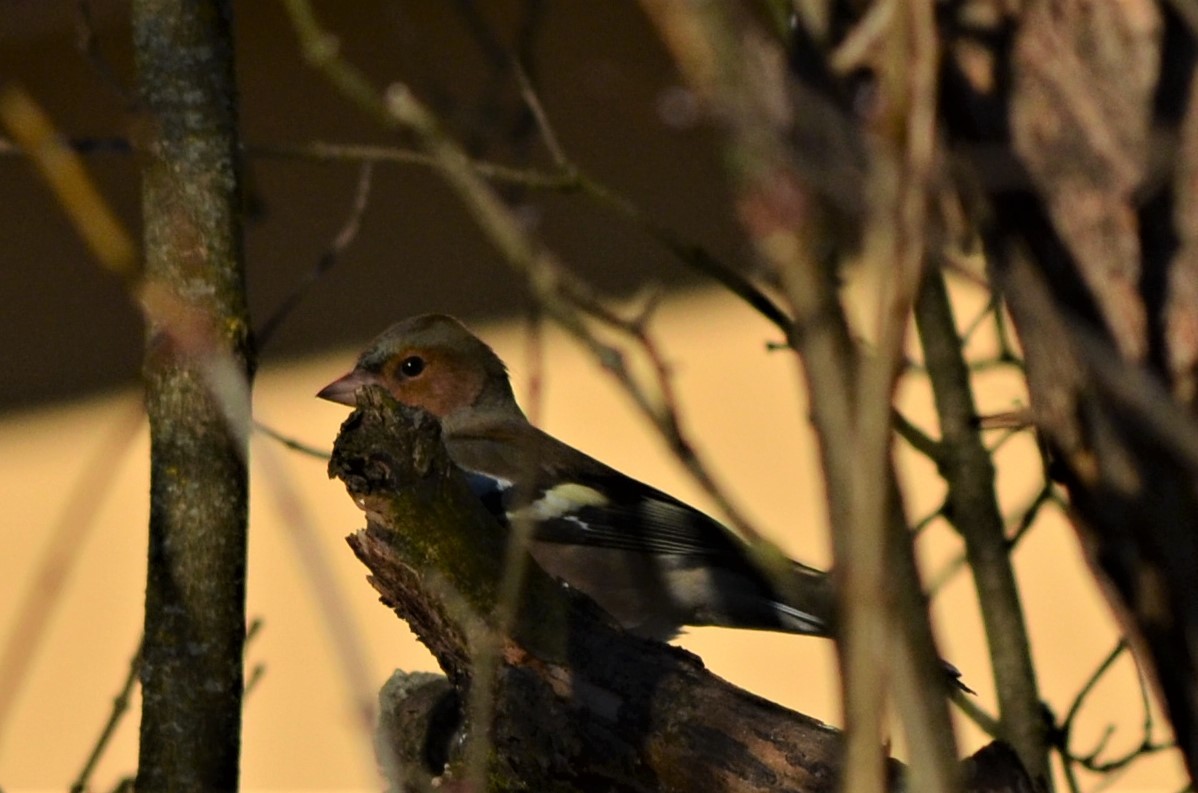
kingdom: Animalia
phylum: Chordata
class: Aves
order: Passeriformes
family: Fringillidae
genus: Fringilla
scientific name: Fringilla coelebs
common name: Common chaffinch
